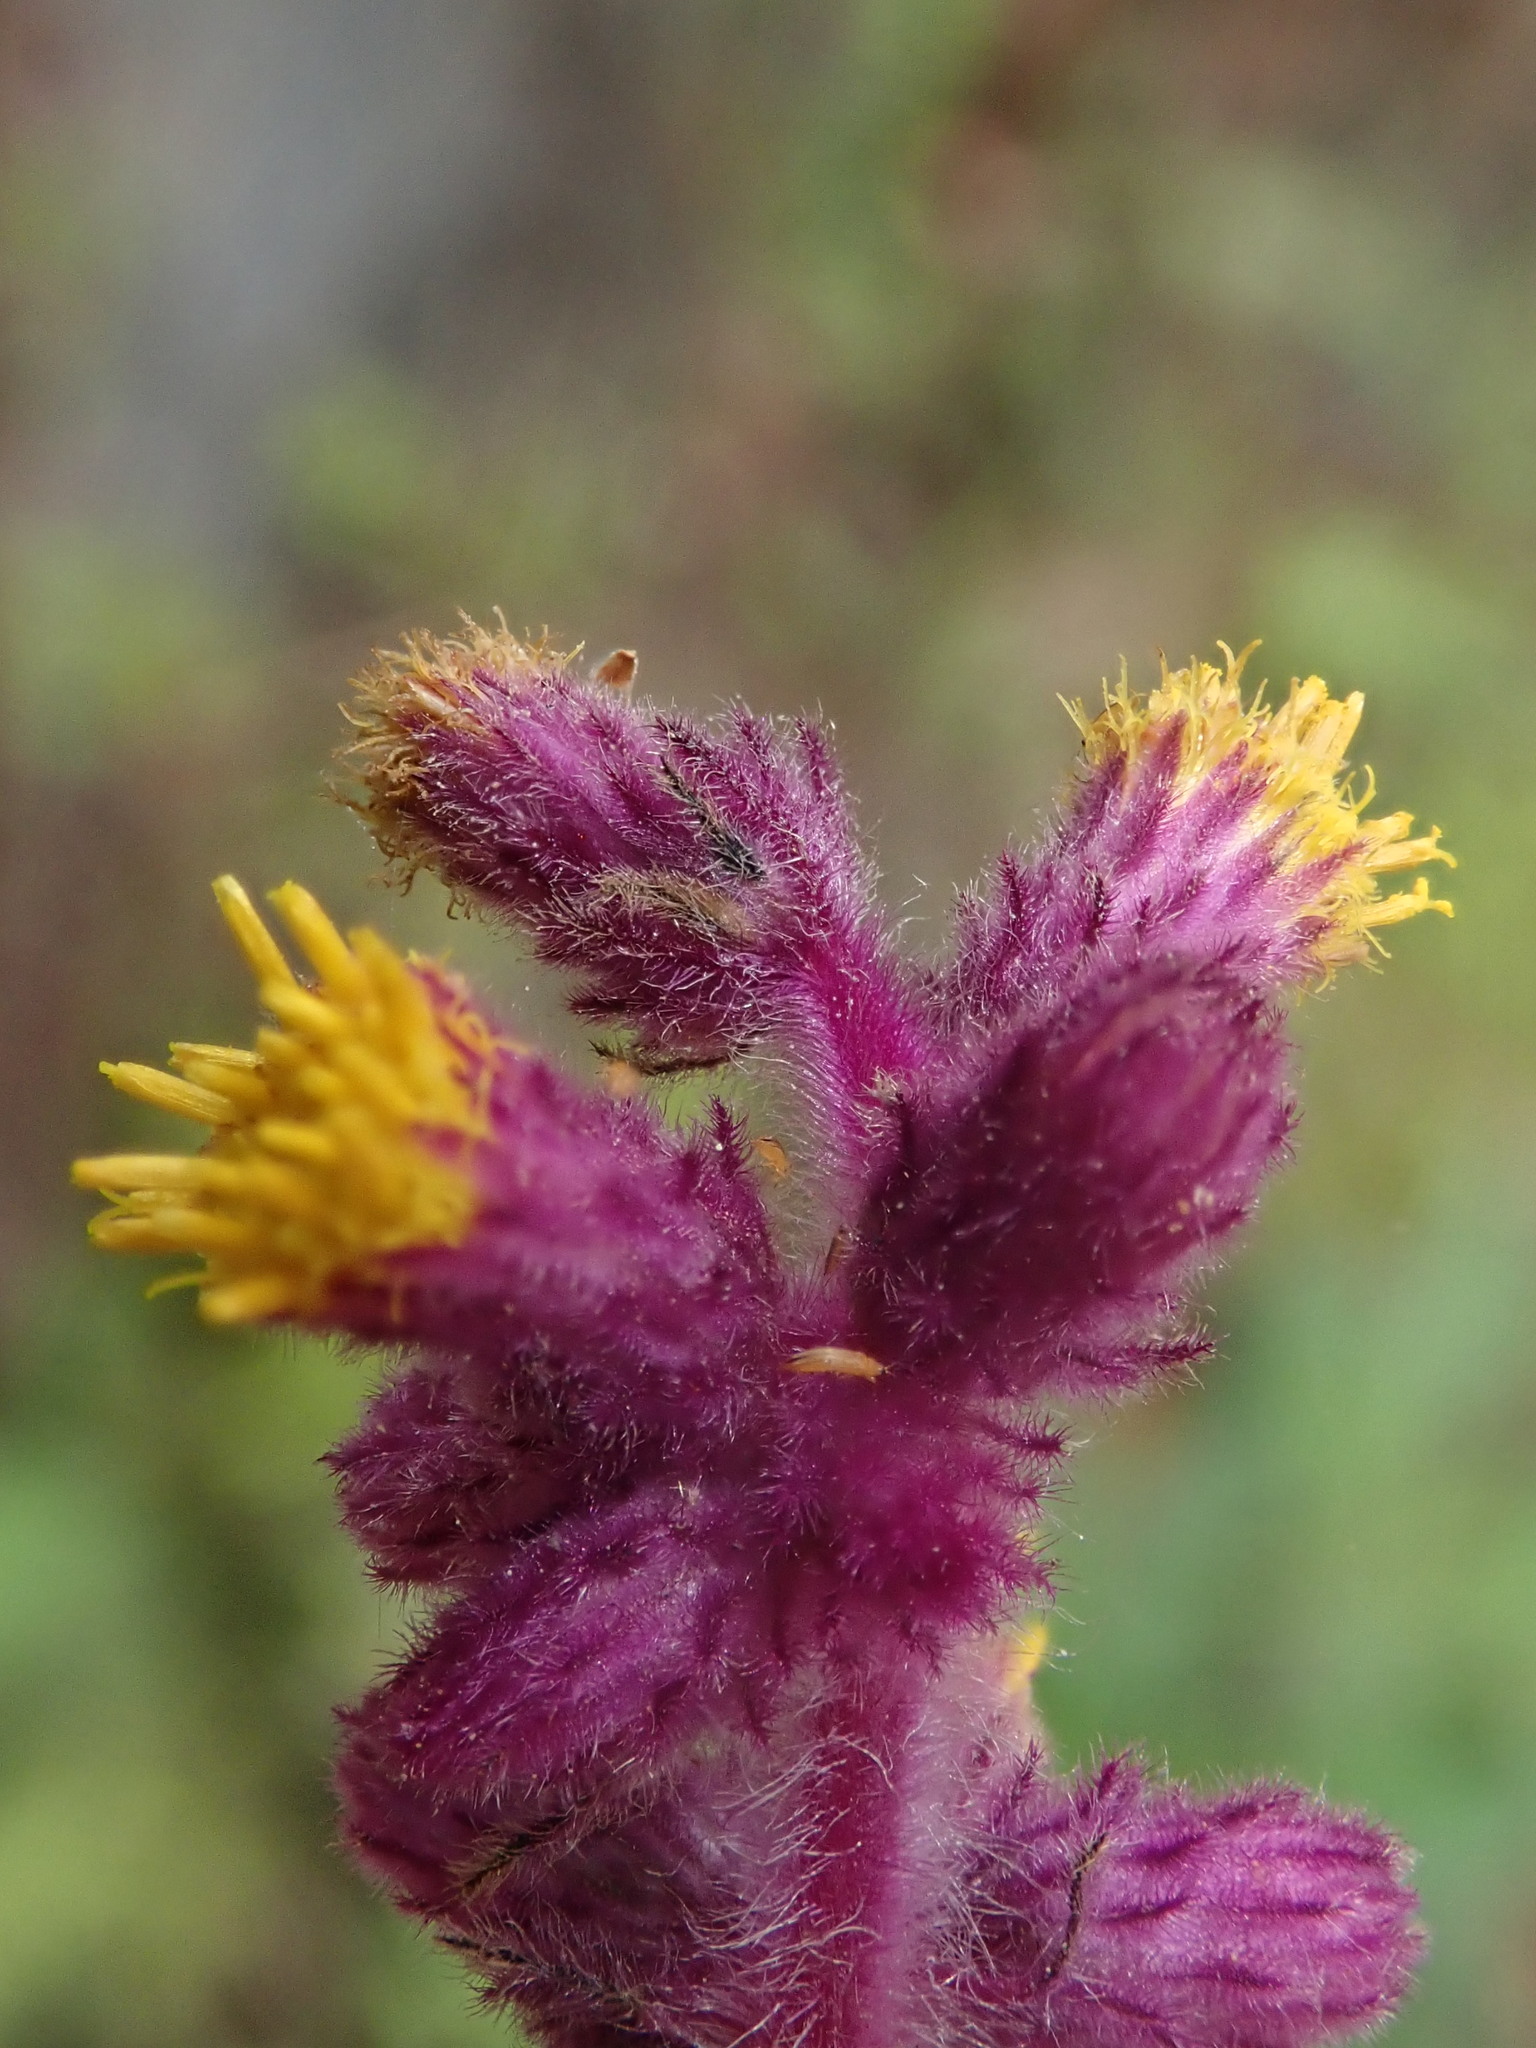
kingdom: Plantae
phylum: Tracheophyta
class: Magnoliopsida
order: Asterales
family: Asteraceae
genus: Blumea
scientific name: Blumea fistulosa
